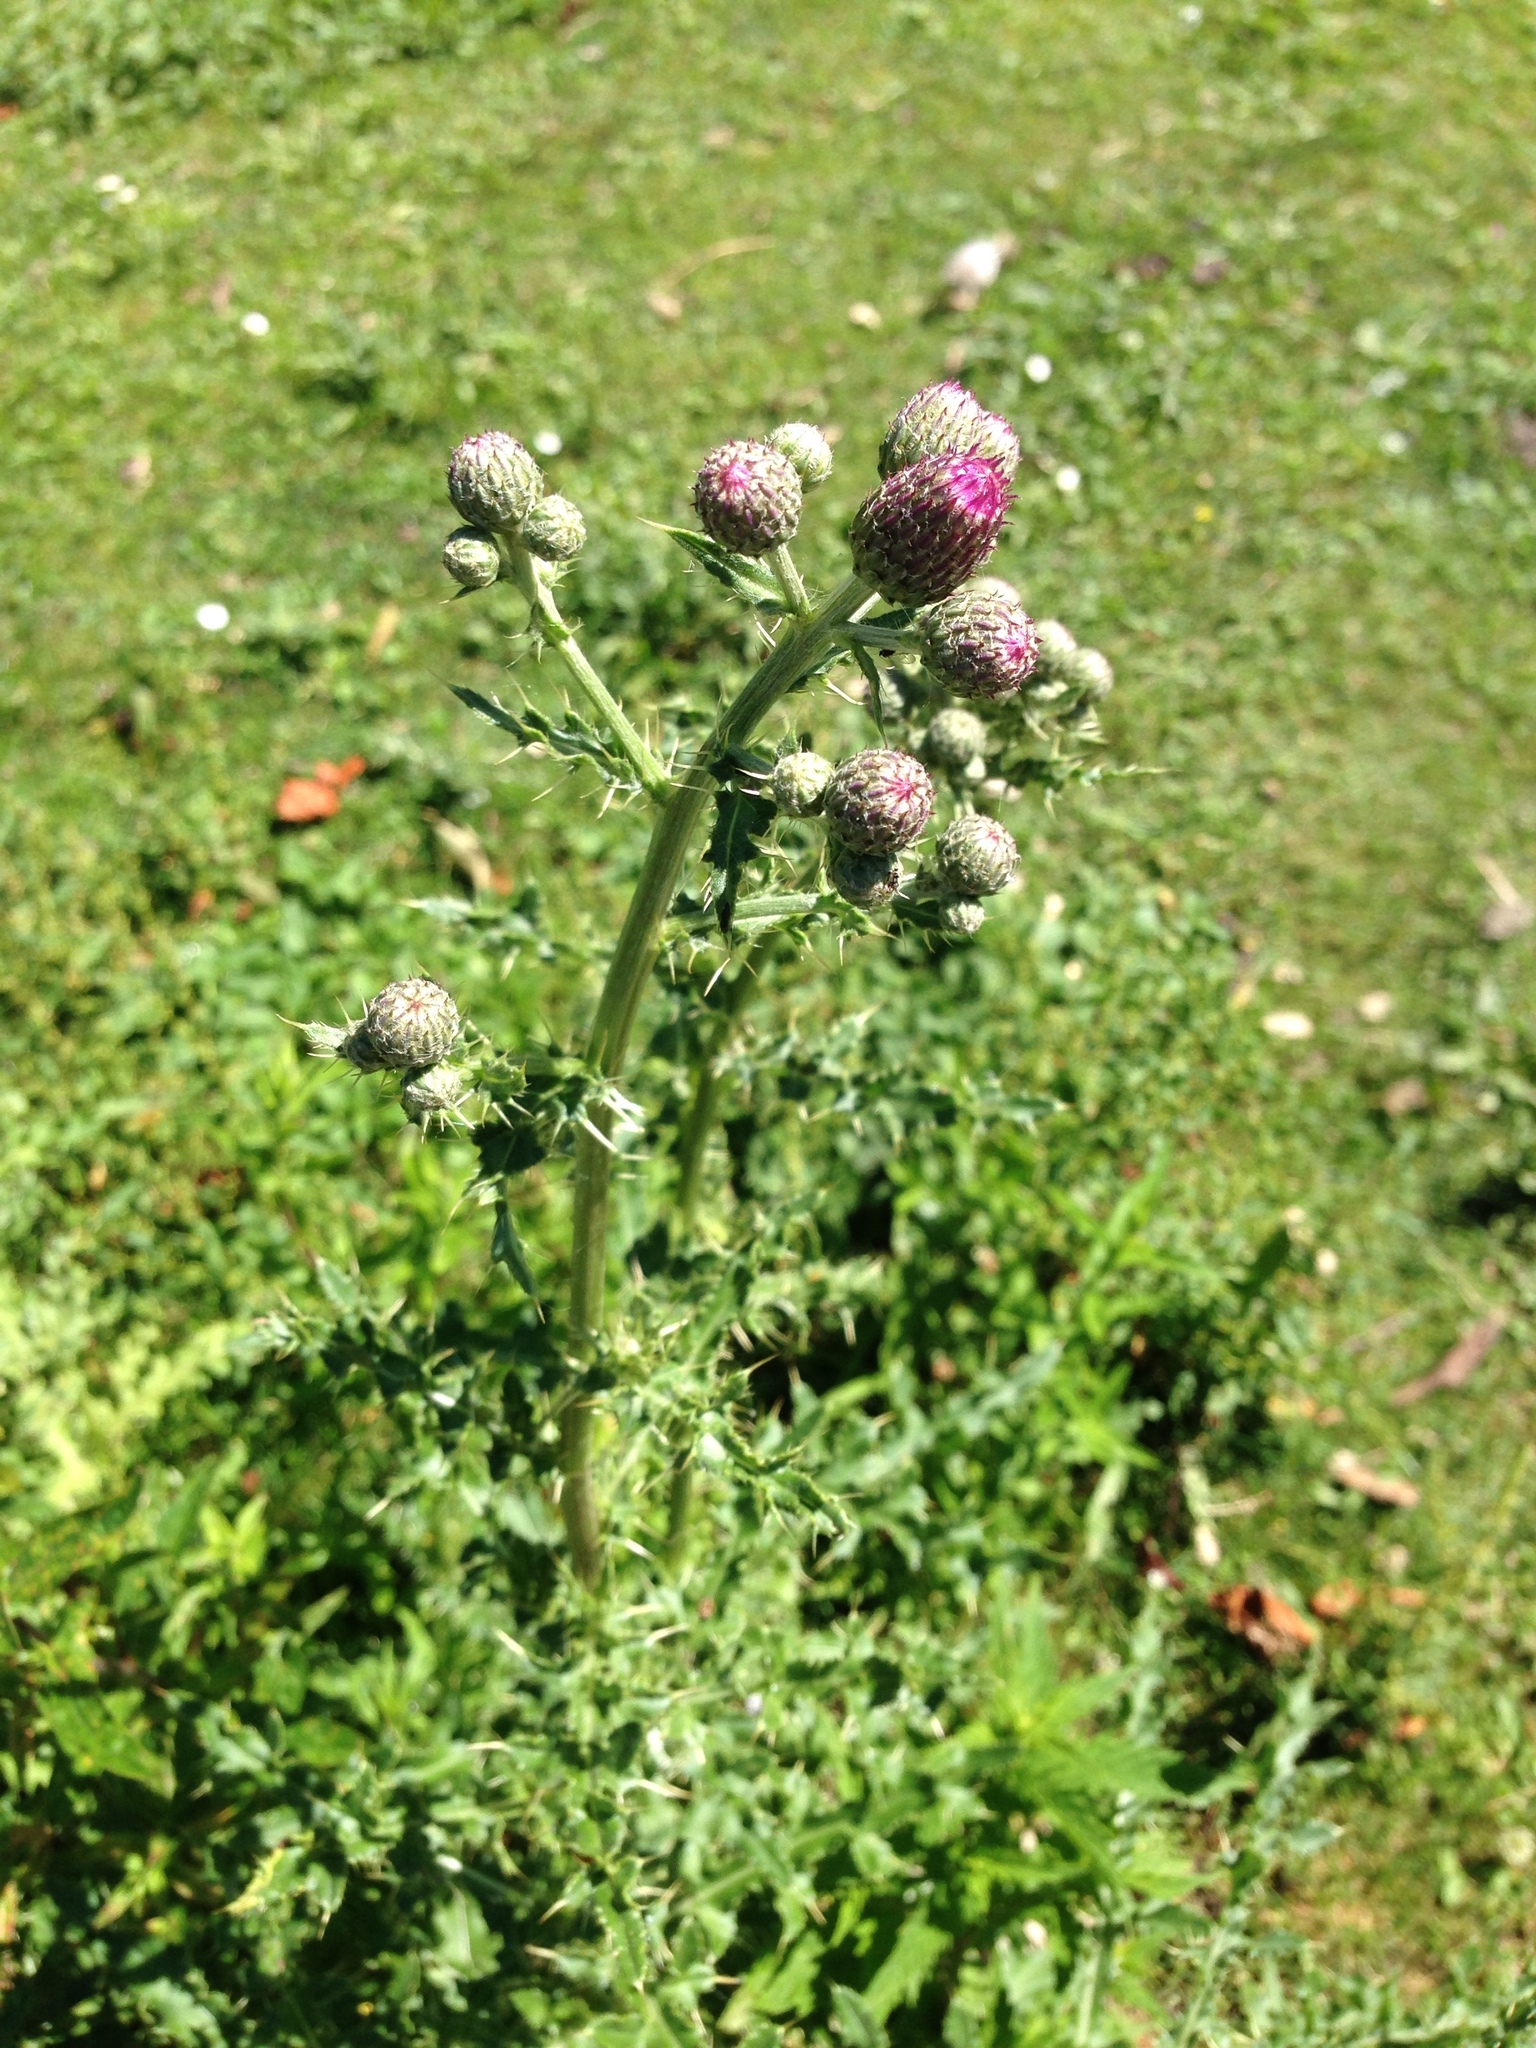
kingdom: Plantae
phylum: Tracheophyta
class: Magnoliopsida
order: Asterales
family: Asteraceae
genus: Cirsium
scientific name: Cirsium arvense
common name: Creeping thistle
